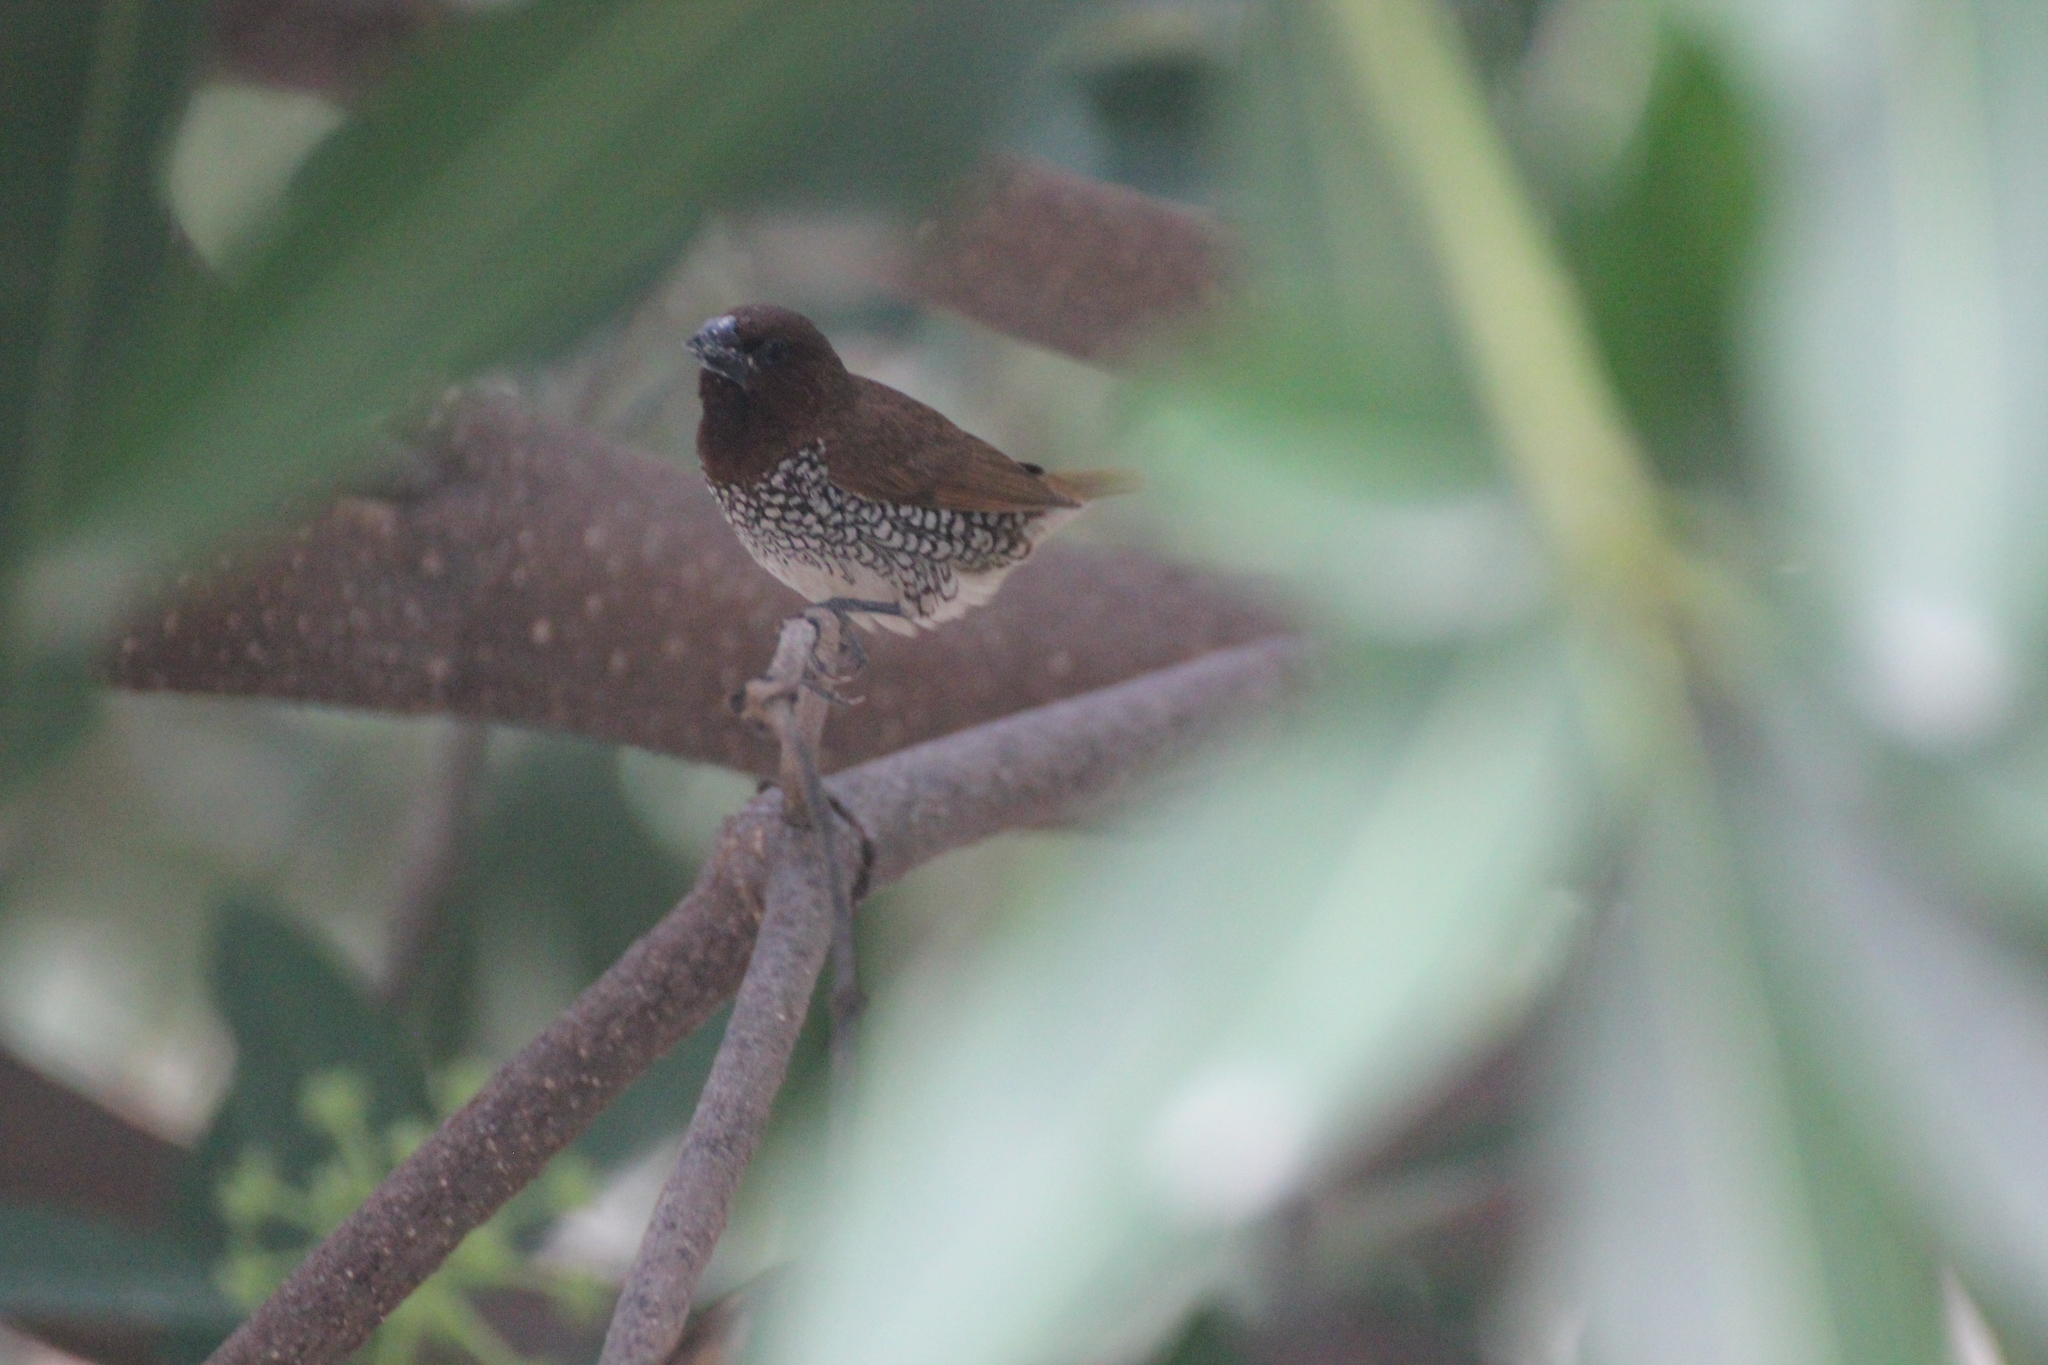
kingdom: Animalia
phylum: Chordata
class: Aves
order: Passeriformes
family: Estrildidae
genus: Lonchura
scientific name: Lonchura punctulata
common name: Scaly-breasted munia
